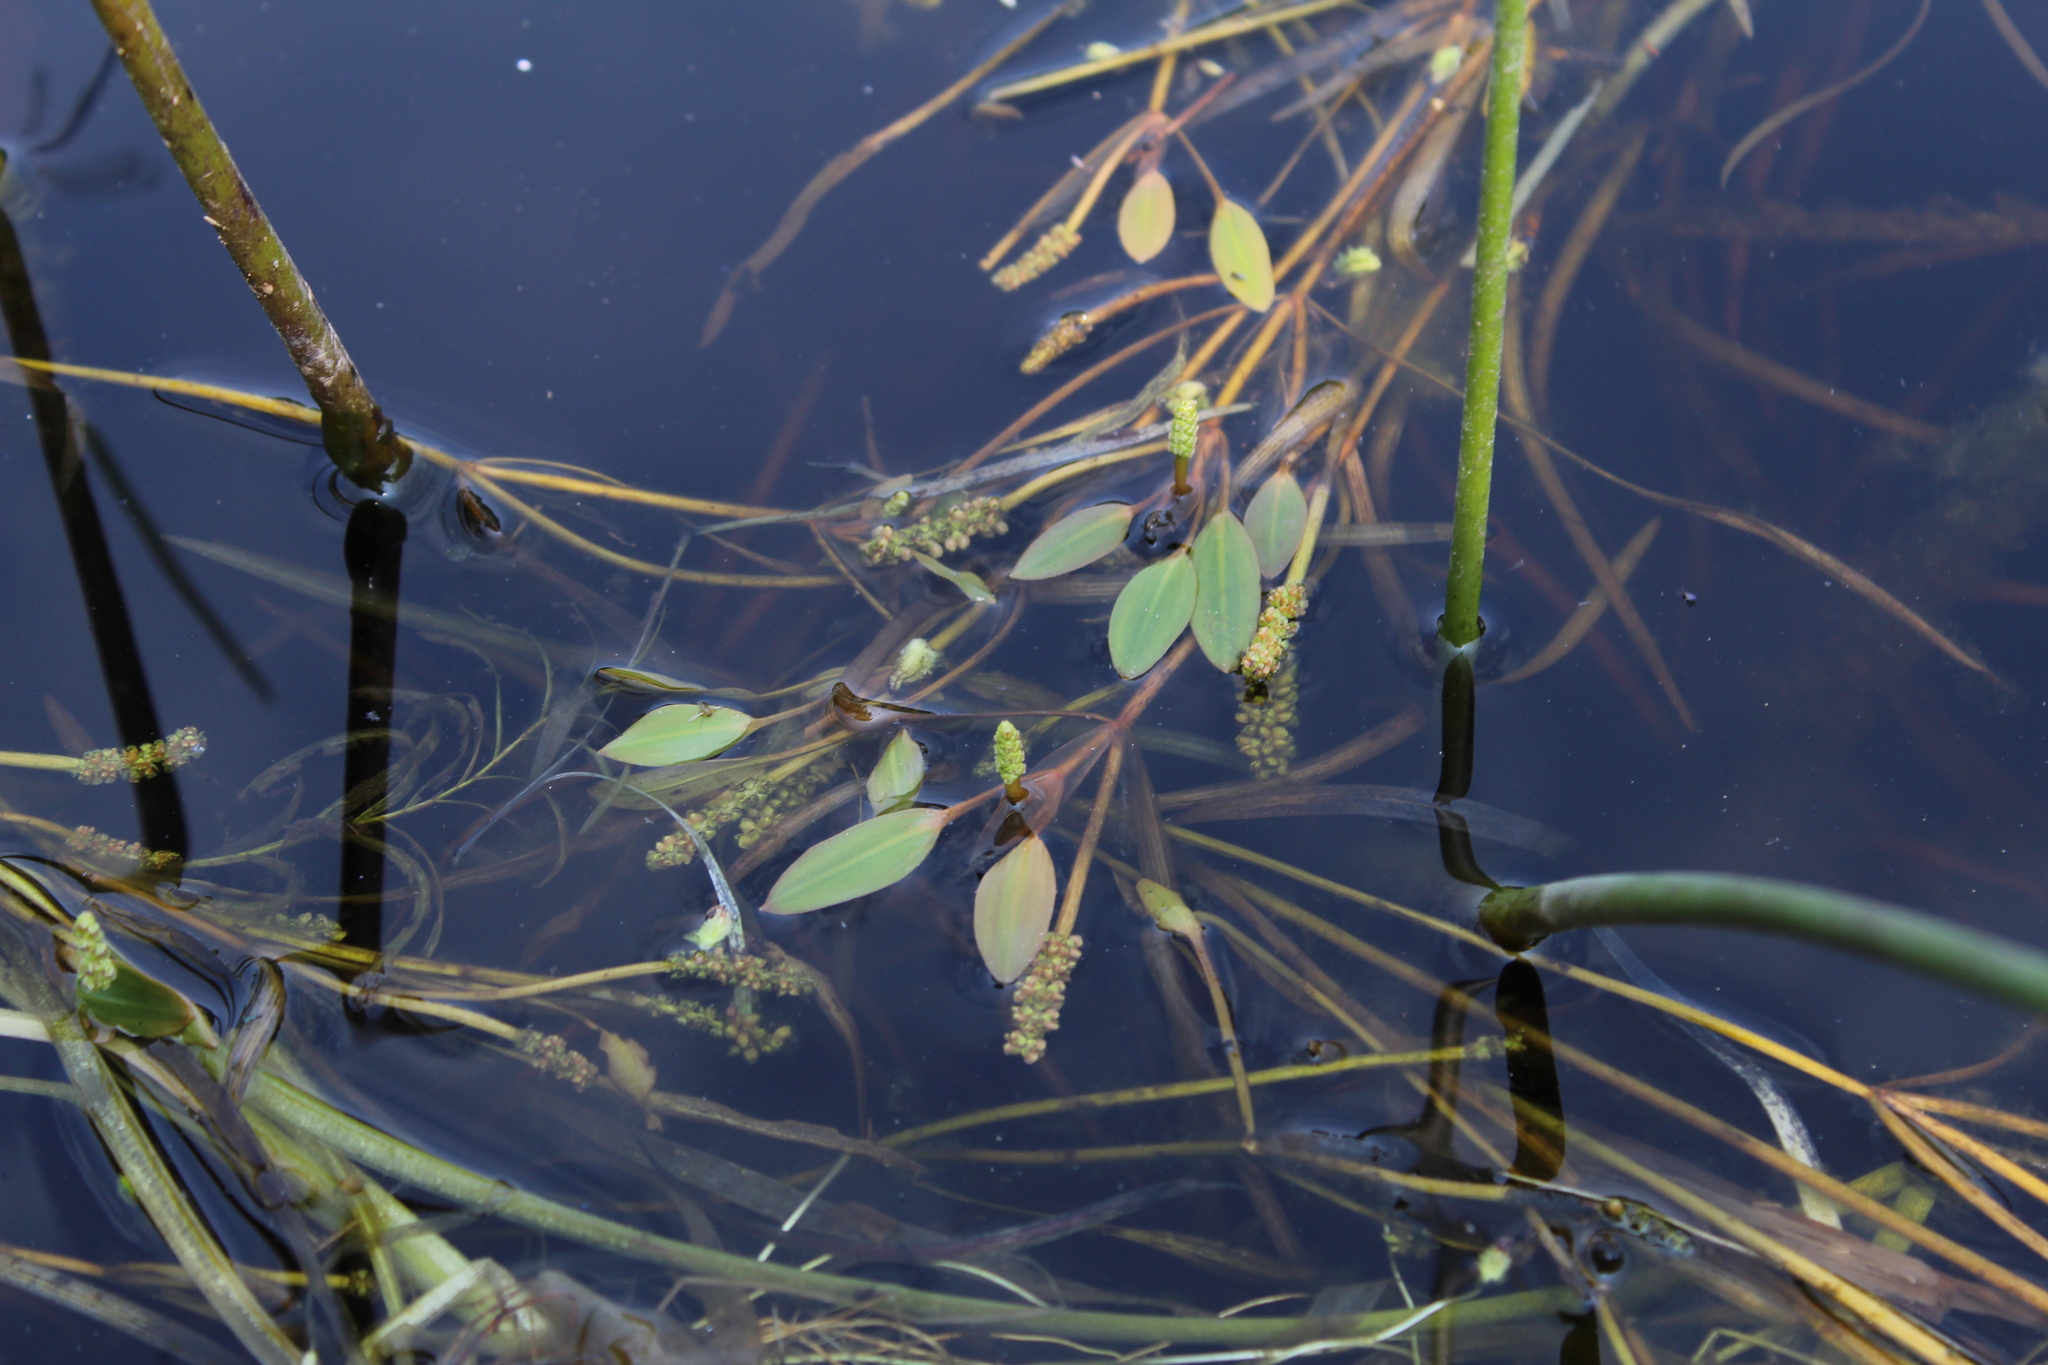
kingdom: Plantae
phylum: Tracheophyta
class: Liliopsida
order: Alismatales
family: Potamogetonaceae
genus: Potamogeton
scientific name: Potamogeton epihydrus
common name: American pondweed
